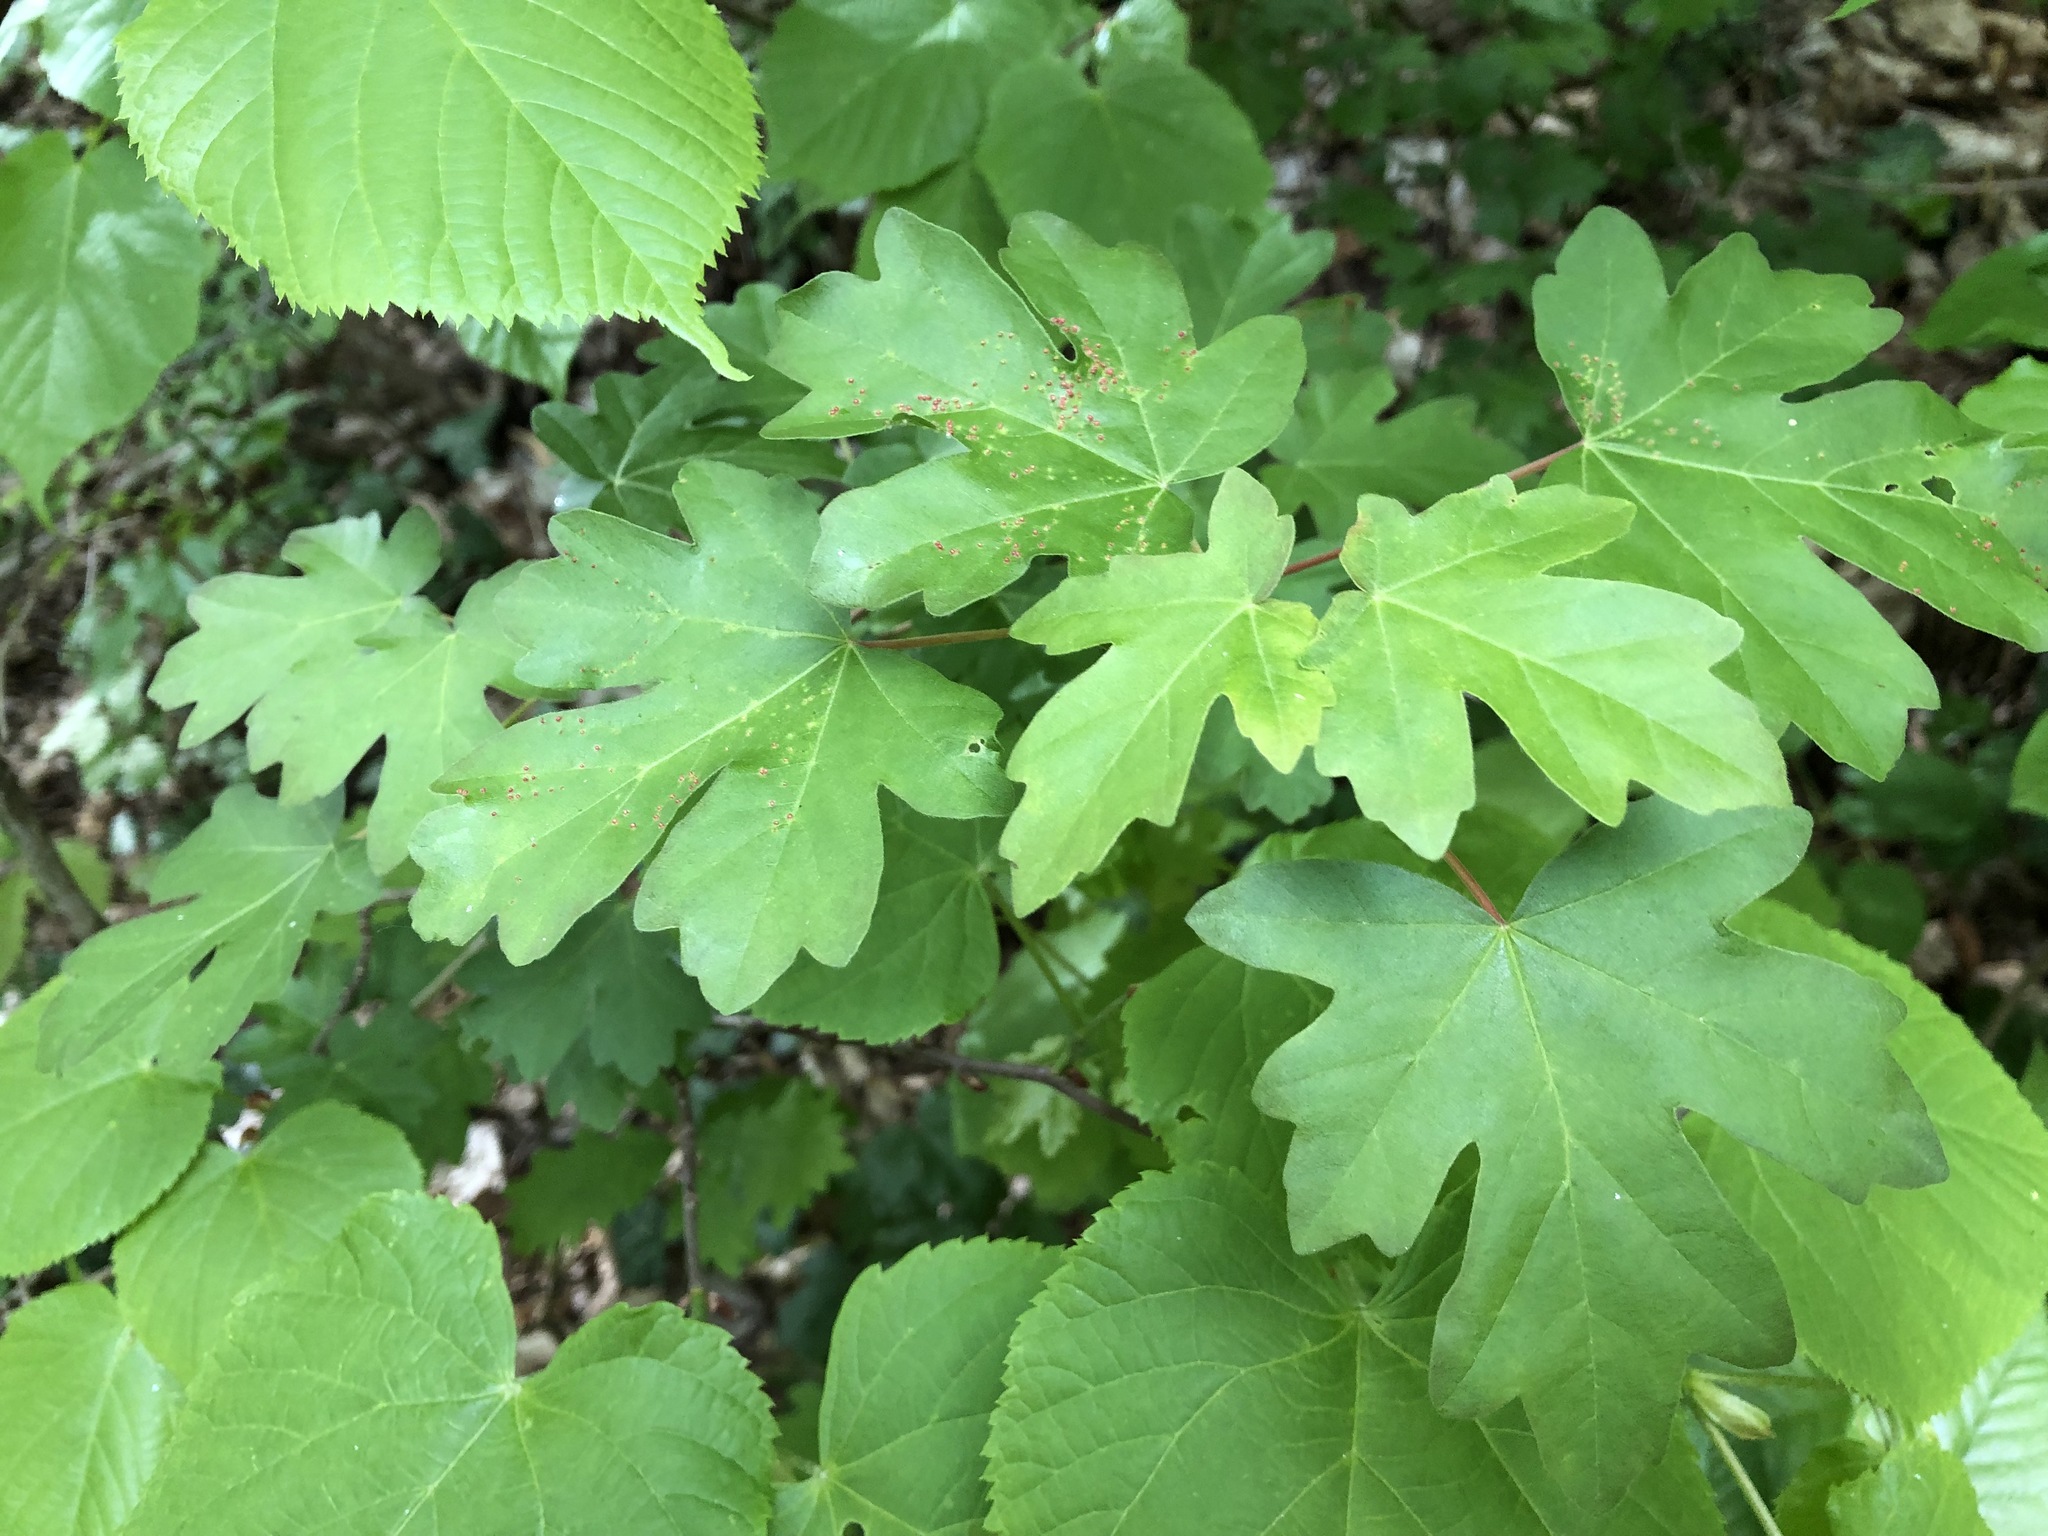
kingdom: Plantae
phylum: Tracheophyta
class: Magnoliopsida
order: Sapindales
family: Sapindaceae
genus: Acer
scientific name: Acer campestre
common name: Field maple
